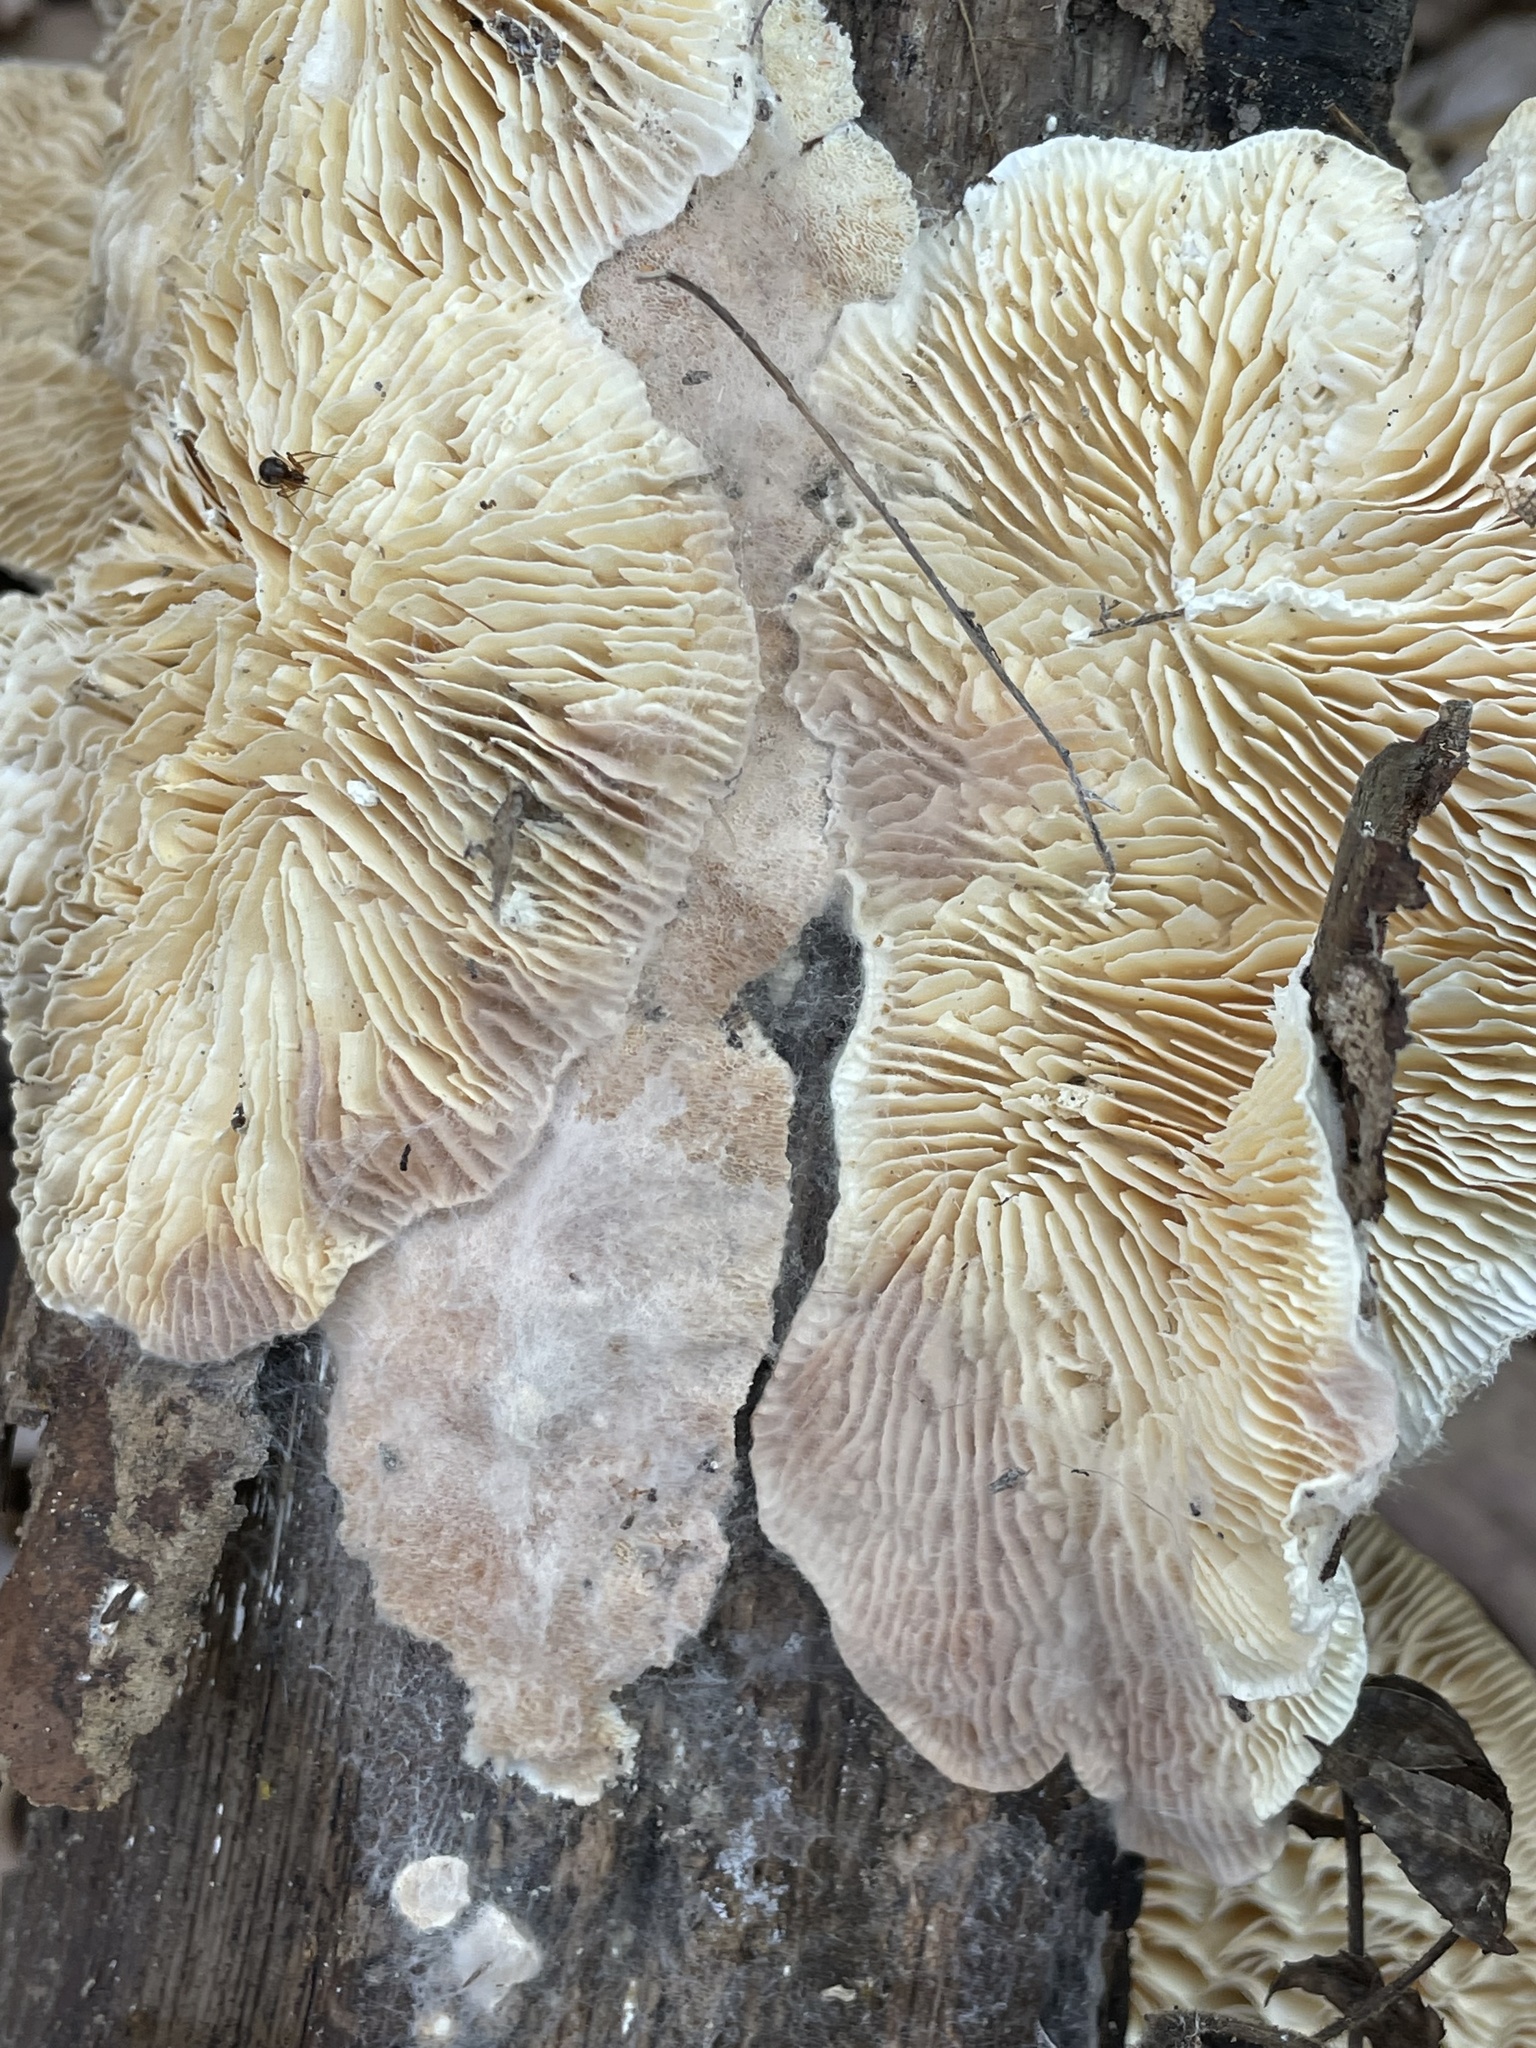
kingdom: Fungi
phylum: Ascomycota
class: Sordariomycetes
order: Hypocreales
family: Hypocreaceae
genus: Hypomyces
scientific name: Hypomyces polyporinus
